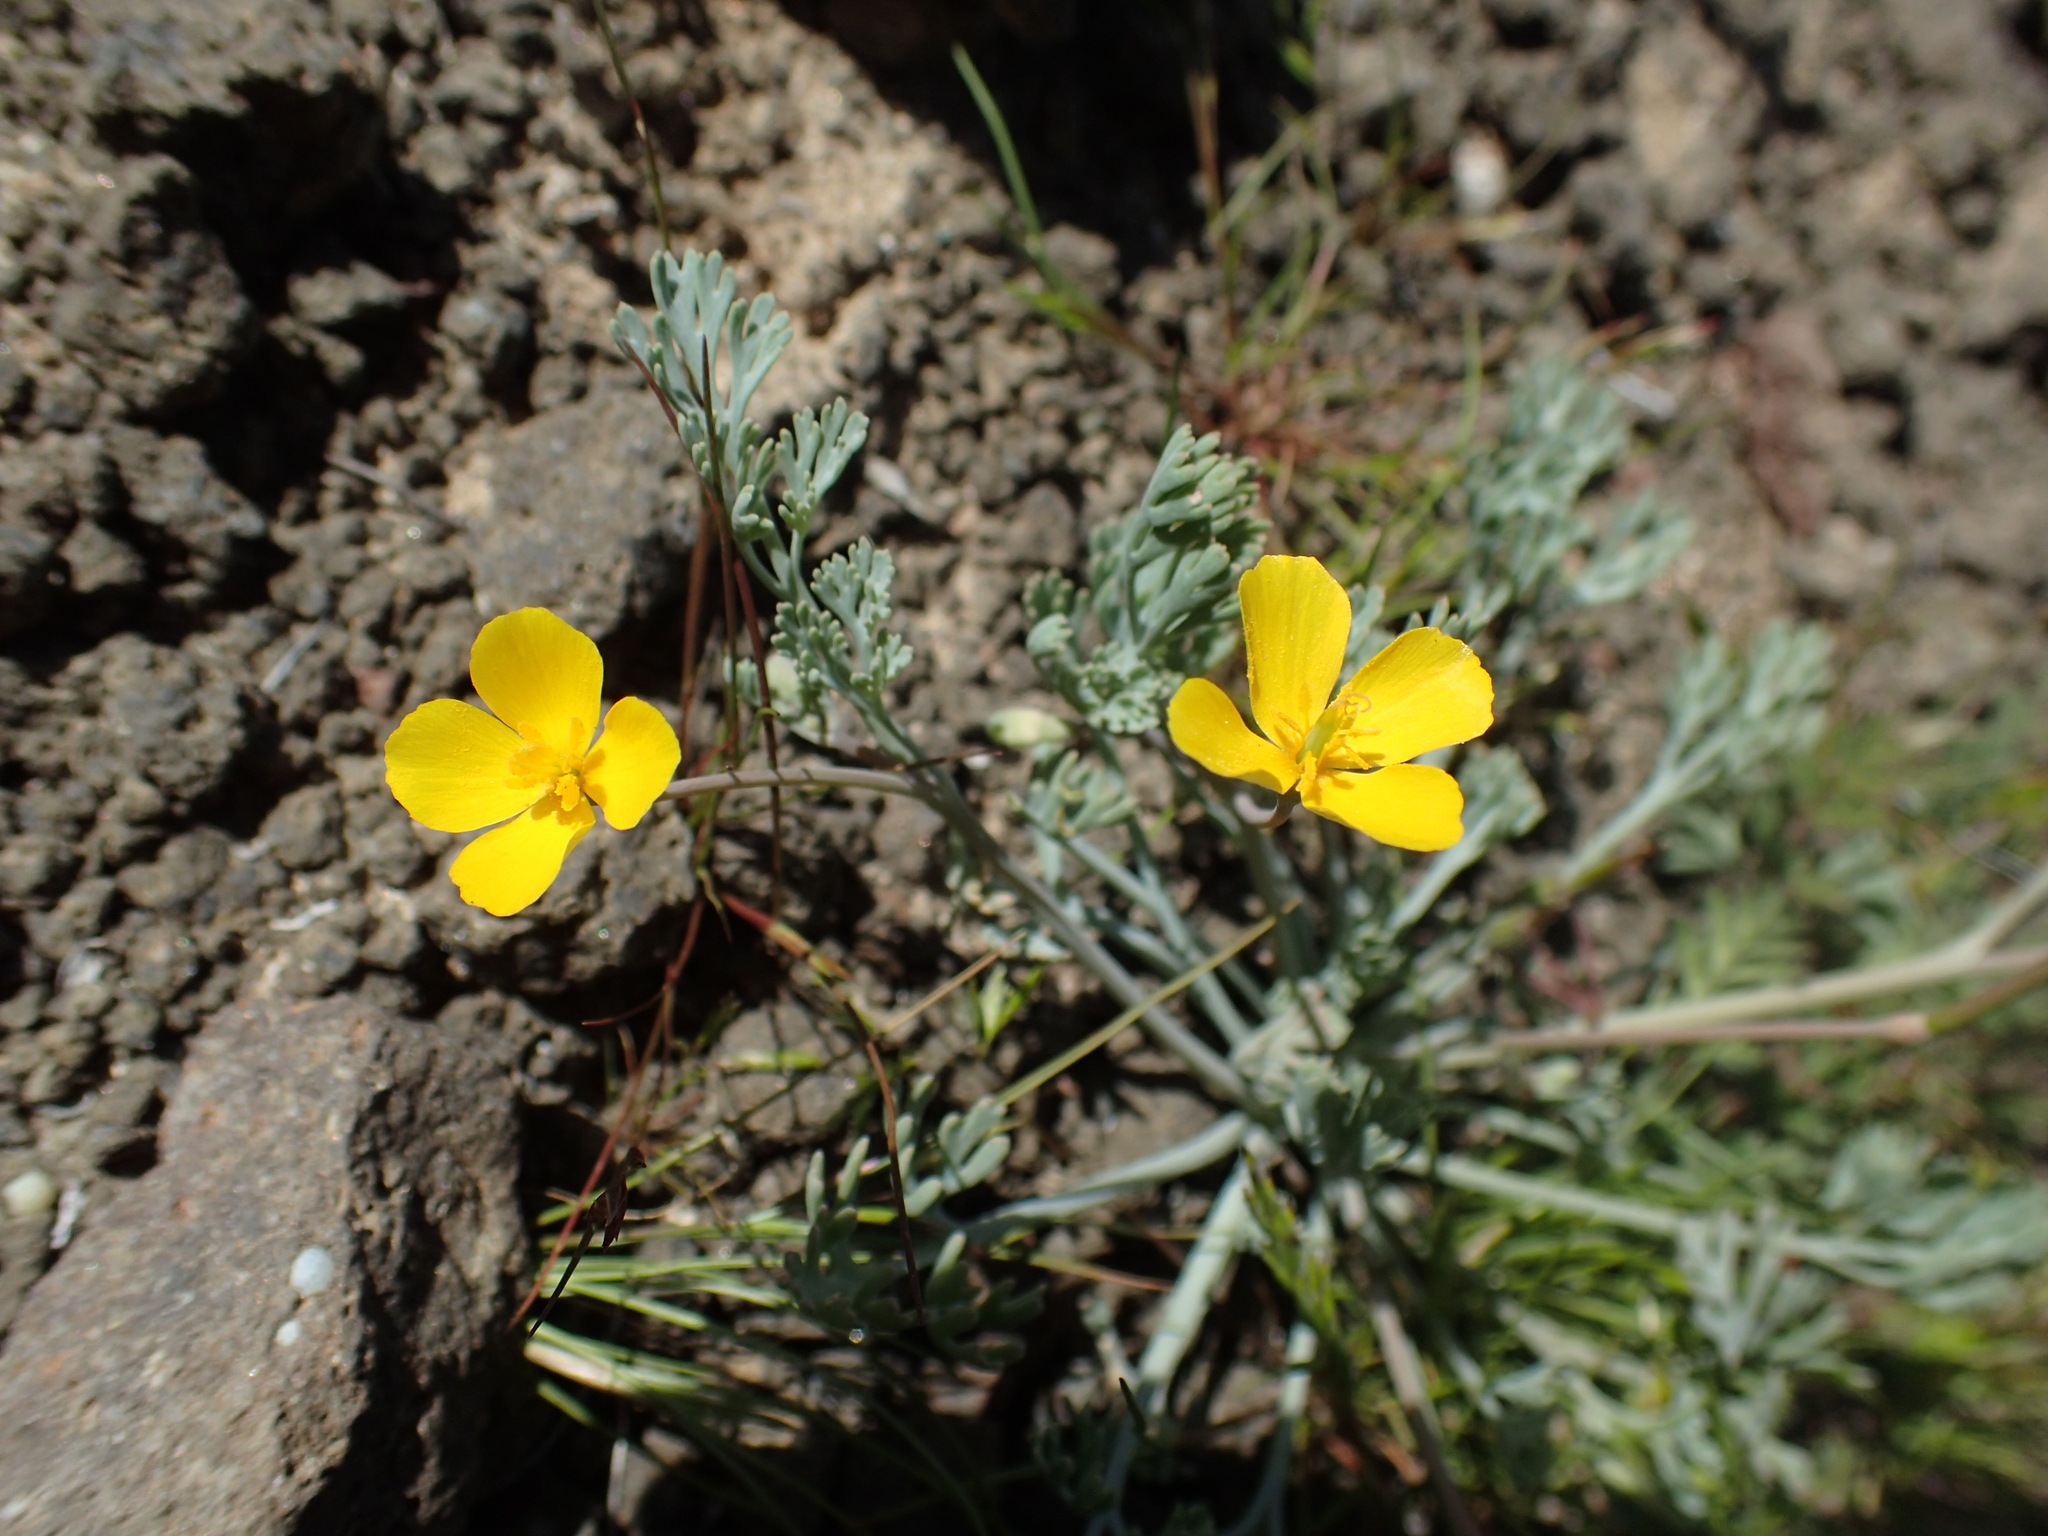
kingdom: Plantae
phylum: Tracheophyta
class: Magnoliopsida
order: Ranunculales
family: Papaveraceae
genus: Eschscholzia
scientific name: Eschscholzia minutiflora
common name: Small-flower california-poppy
